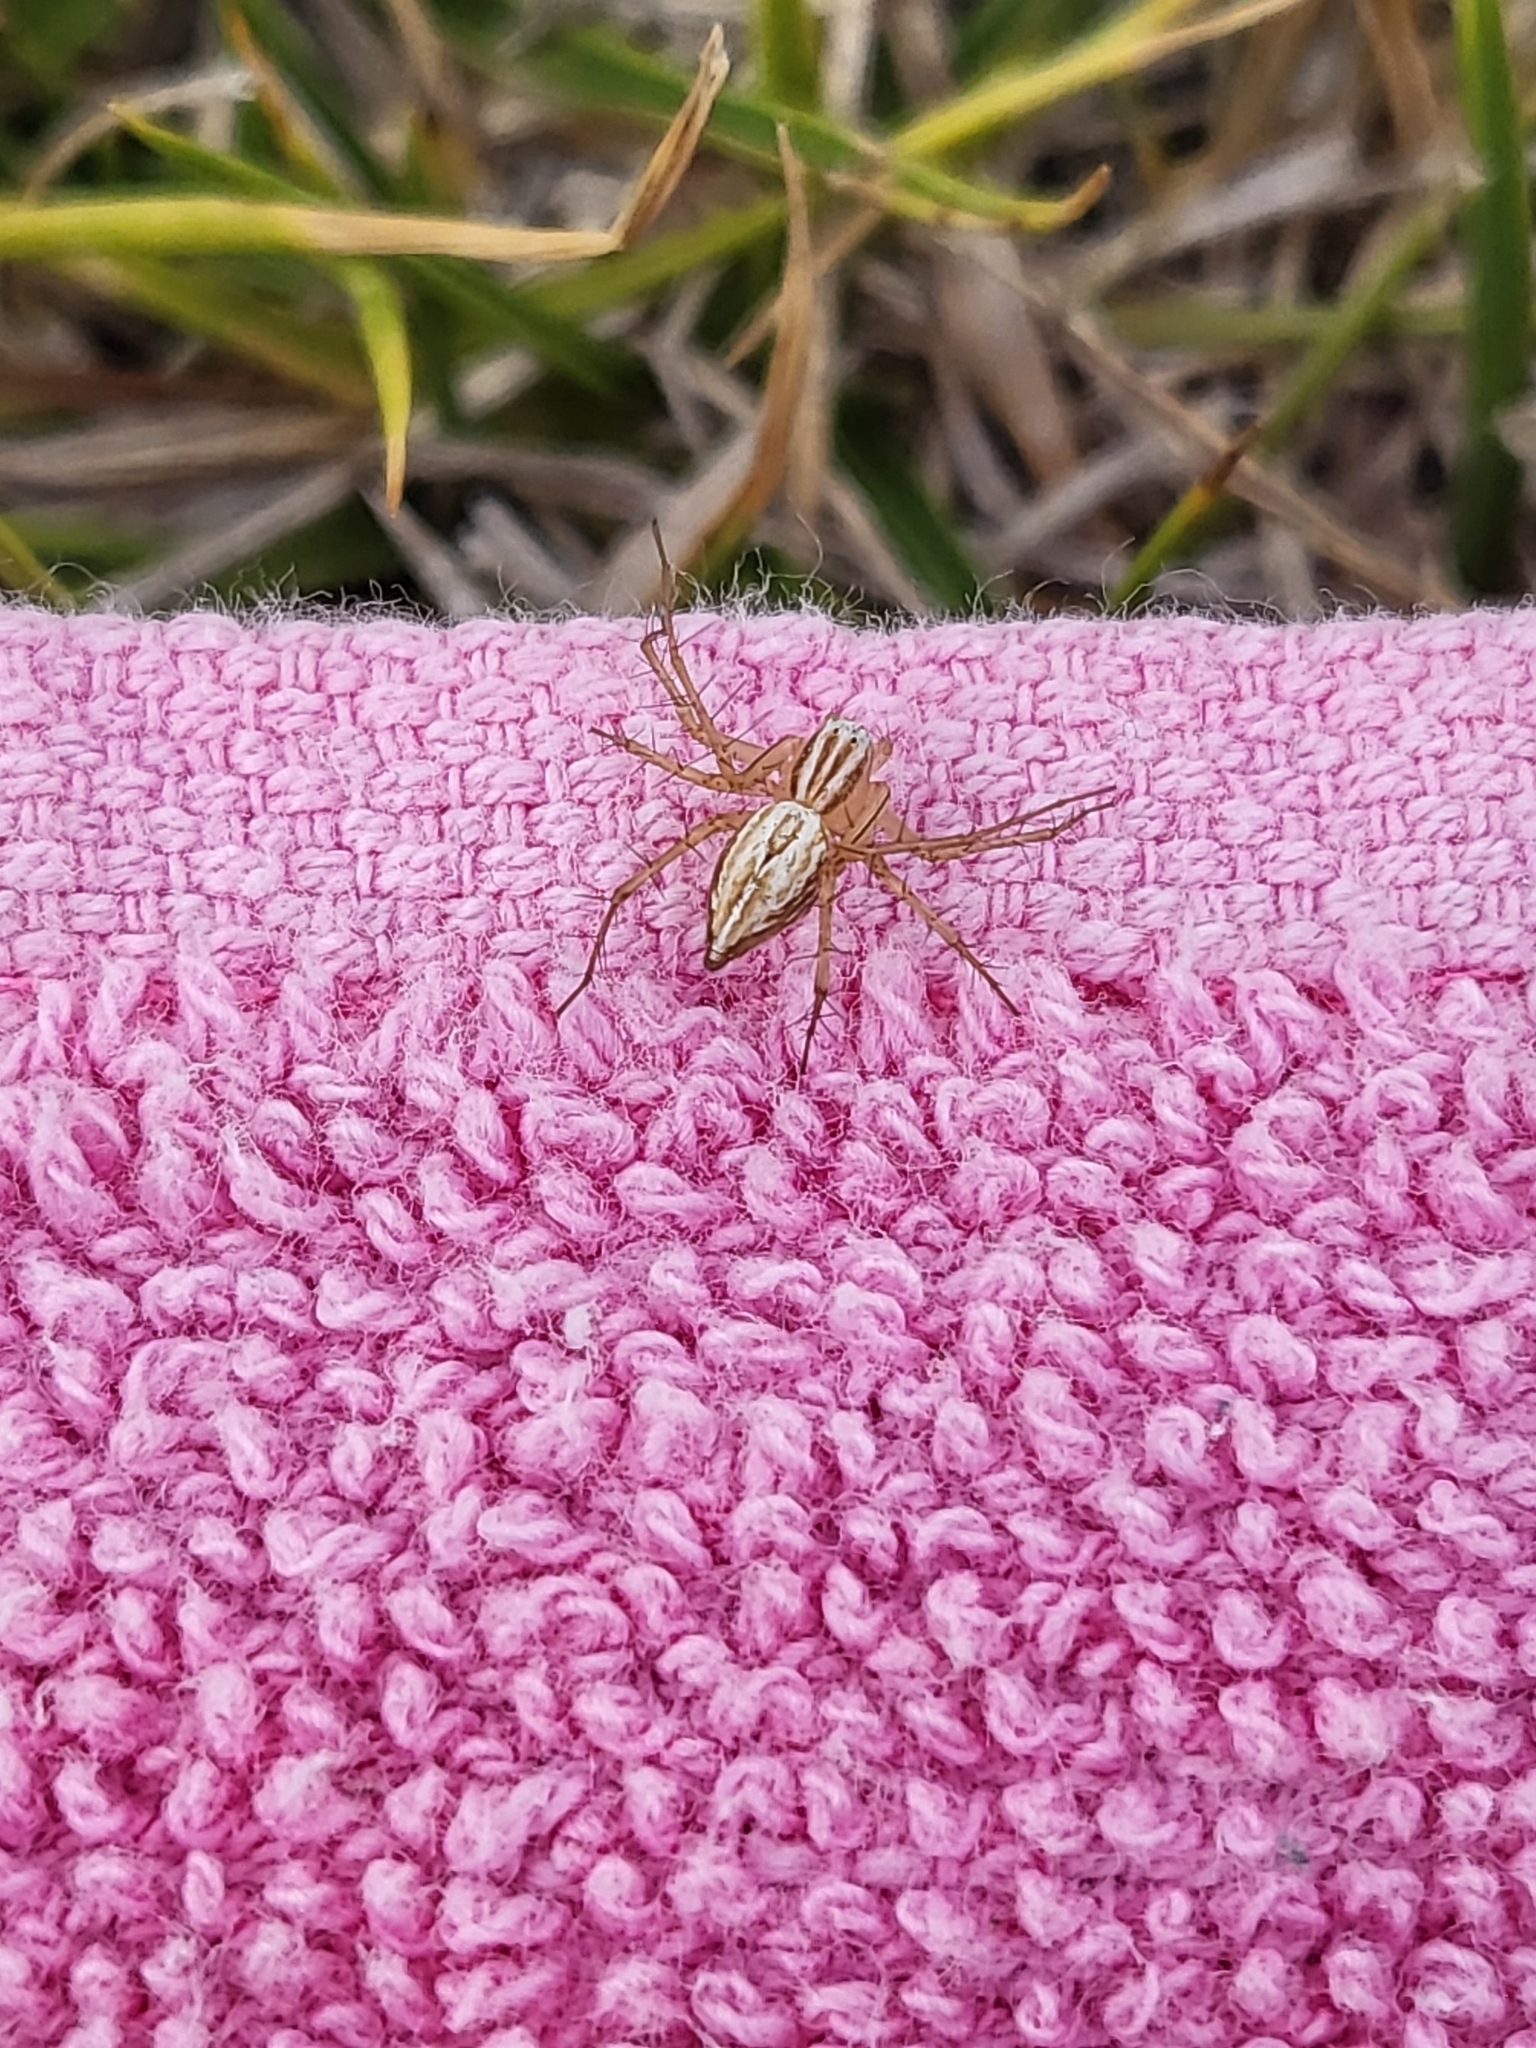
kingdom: Animalia
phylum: Arthropoda
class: Arachnida
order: Araneae
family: Oxyopidae
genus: Oxyopes
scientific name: Oxyopes salticus
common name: Lynx spiders
